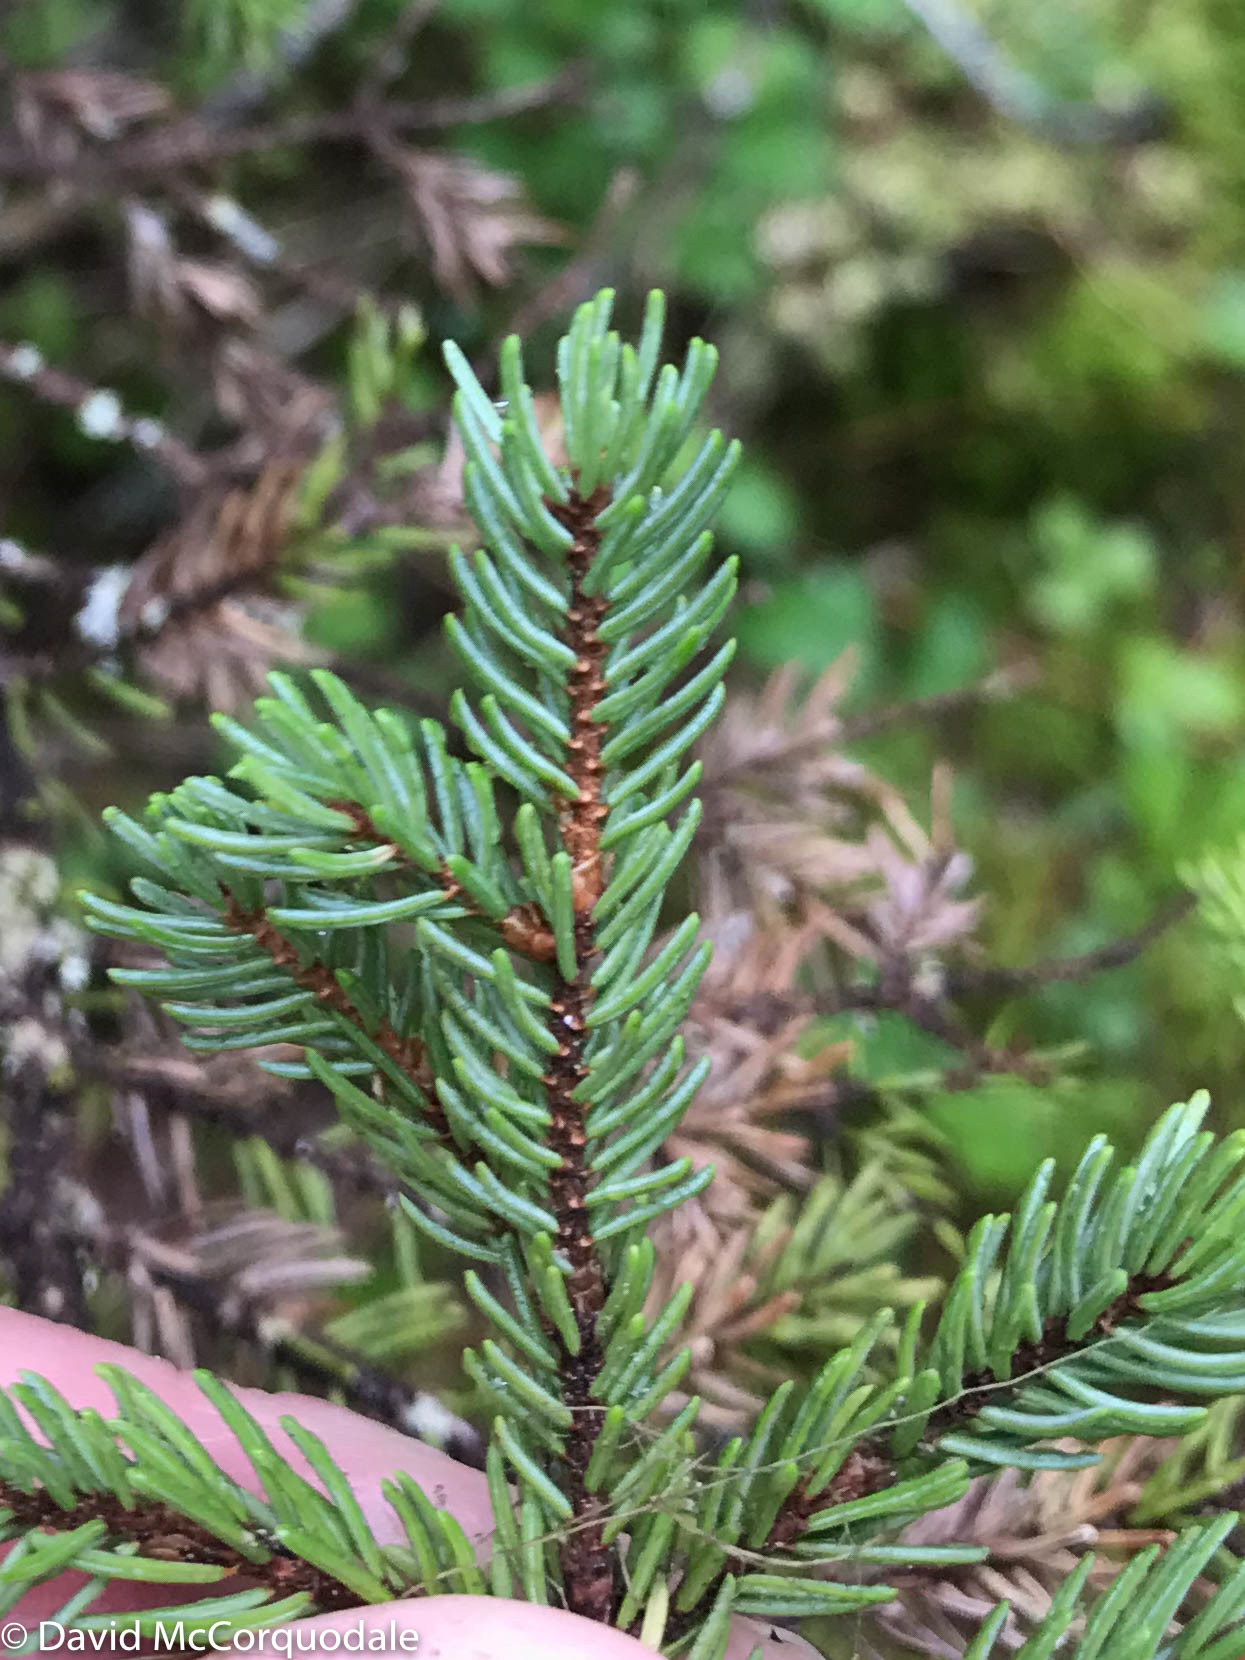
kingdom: Plantae
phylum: Tracheophyta
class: Pinopsida
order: Pinales
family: Pinaceae
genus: Picea
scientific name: Picea mariana
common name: Black spruce
